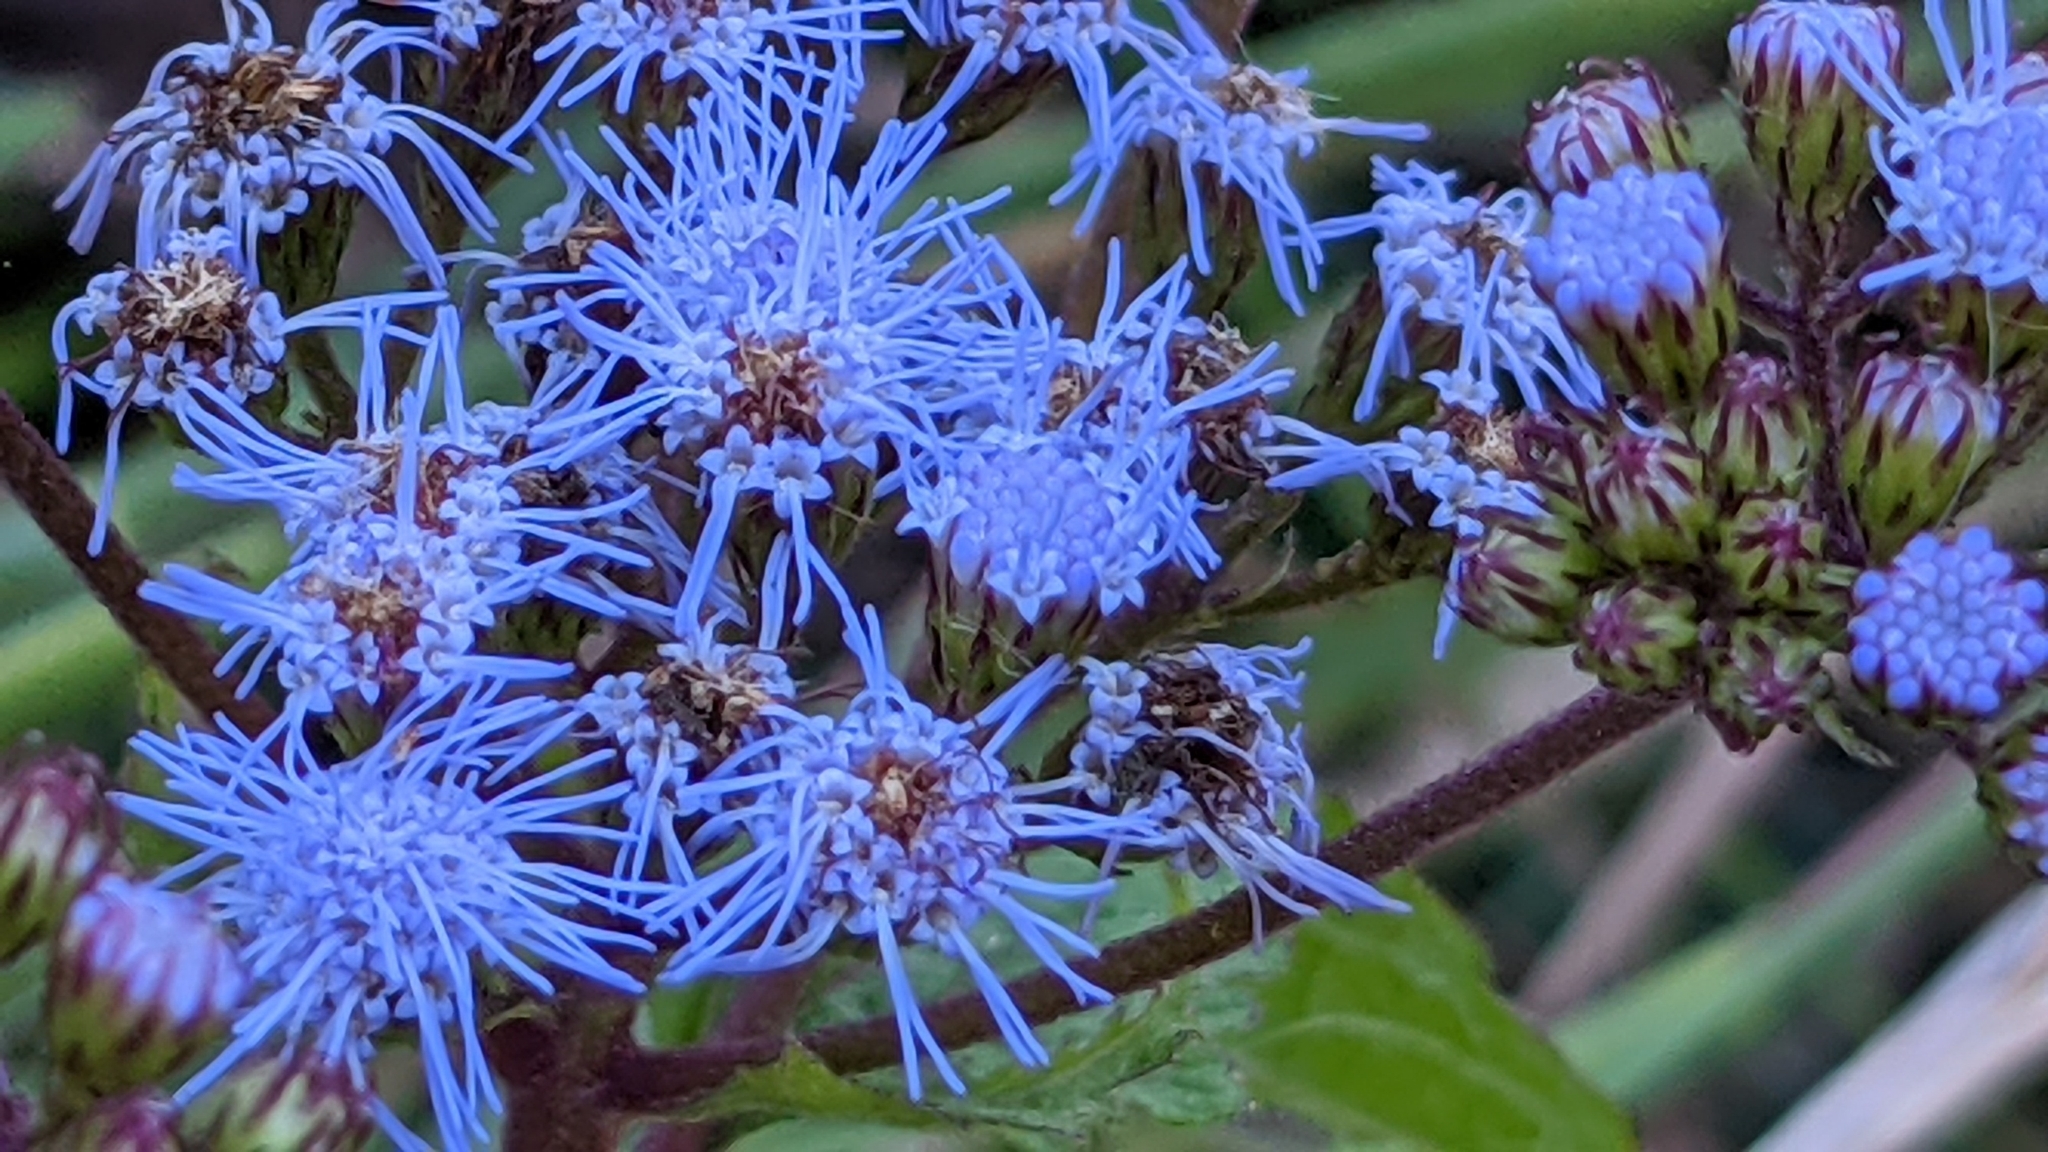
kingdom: Plantae
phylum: Tracheophyta
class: Magnoliopsida
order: Asterales
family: Asteraceae
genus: Conoclinium
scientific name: Conoclinium coelestinum
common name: Blue mistflower
